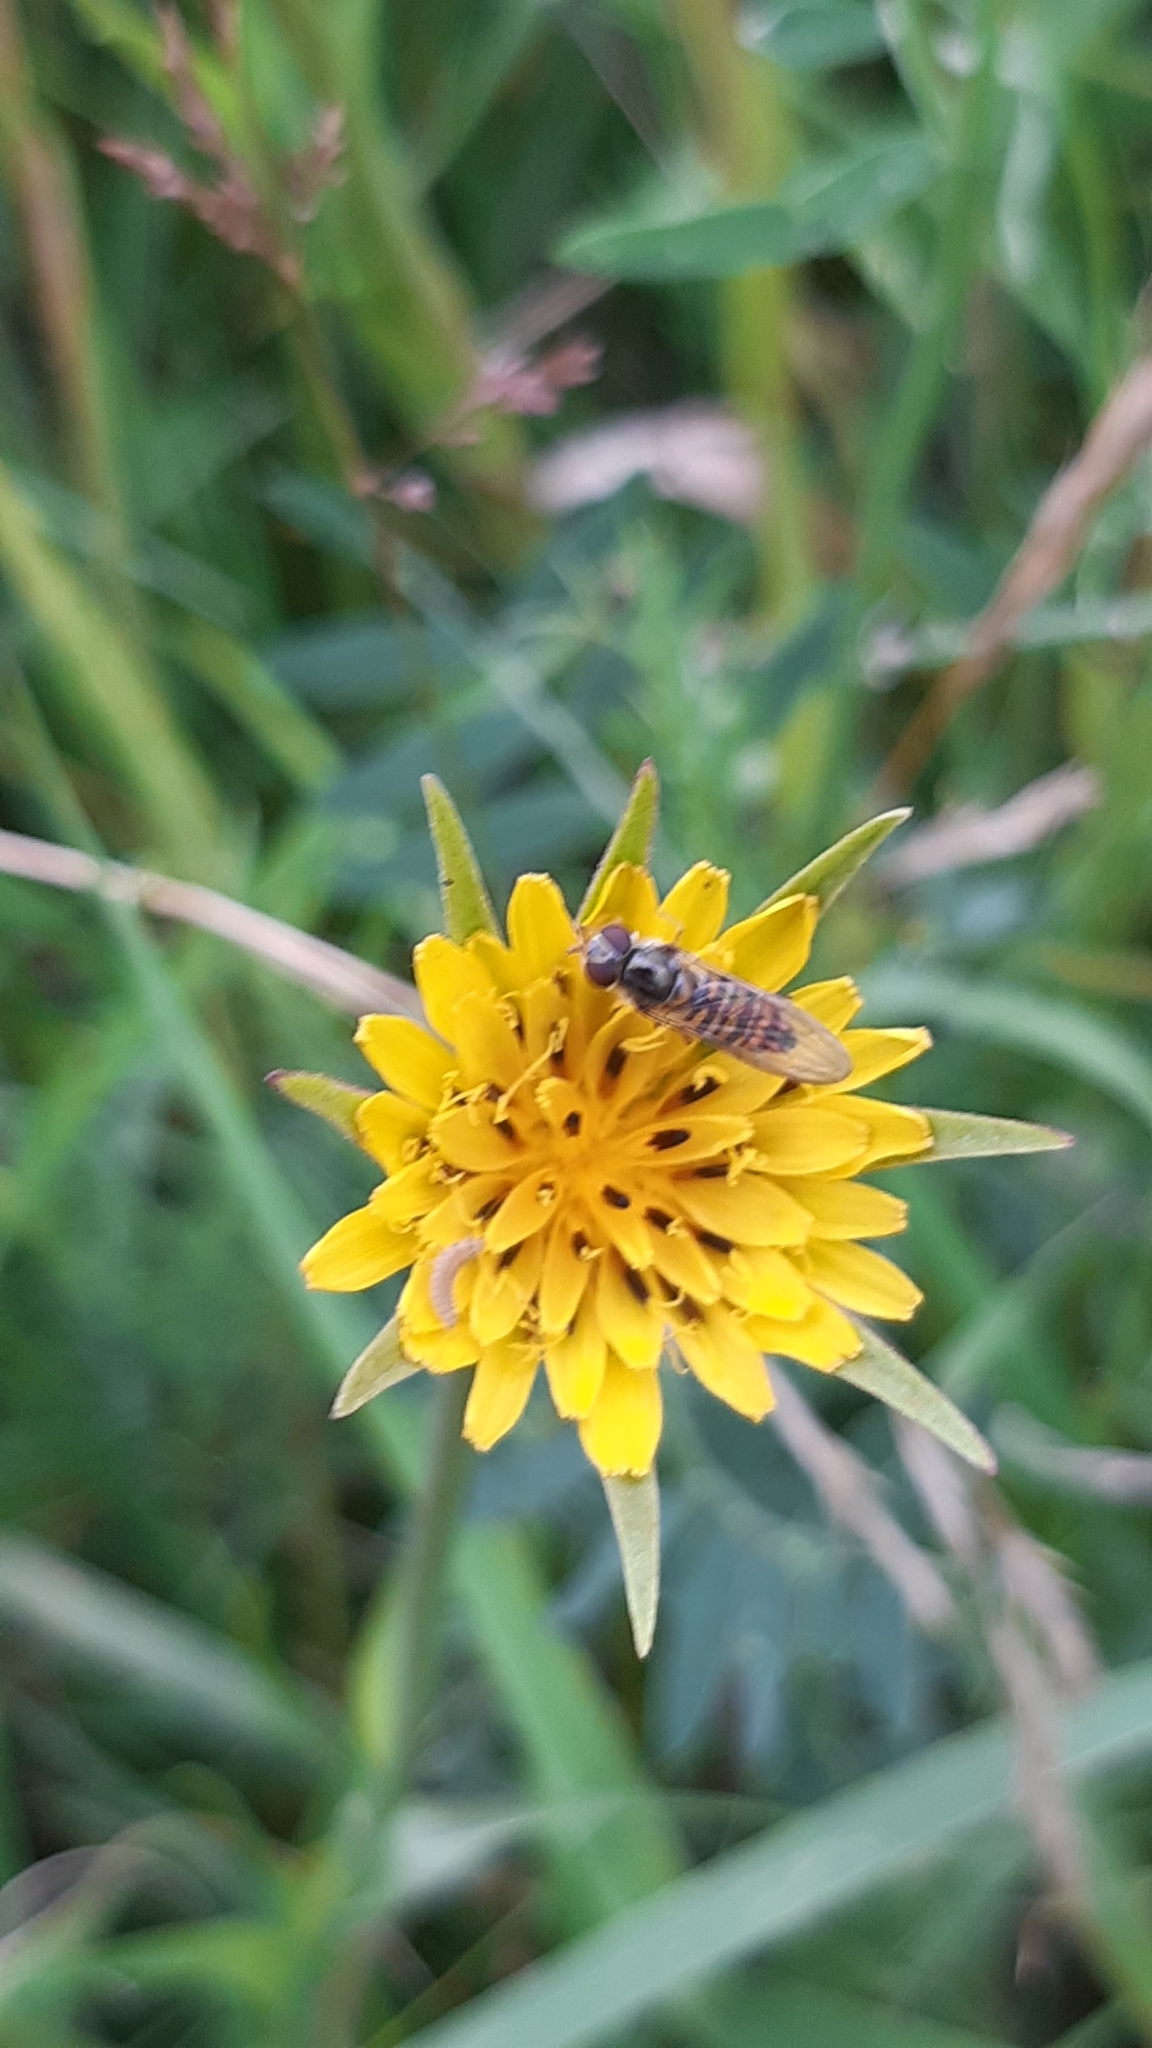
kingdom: Plantae
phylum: Tracheophyta
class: Magnoliopsida
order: Asterales
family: Asteraceae
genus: Tragopogon
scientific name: Tragopogon pratensis
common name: Goat's-beard
